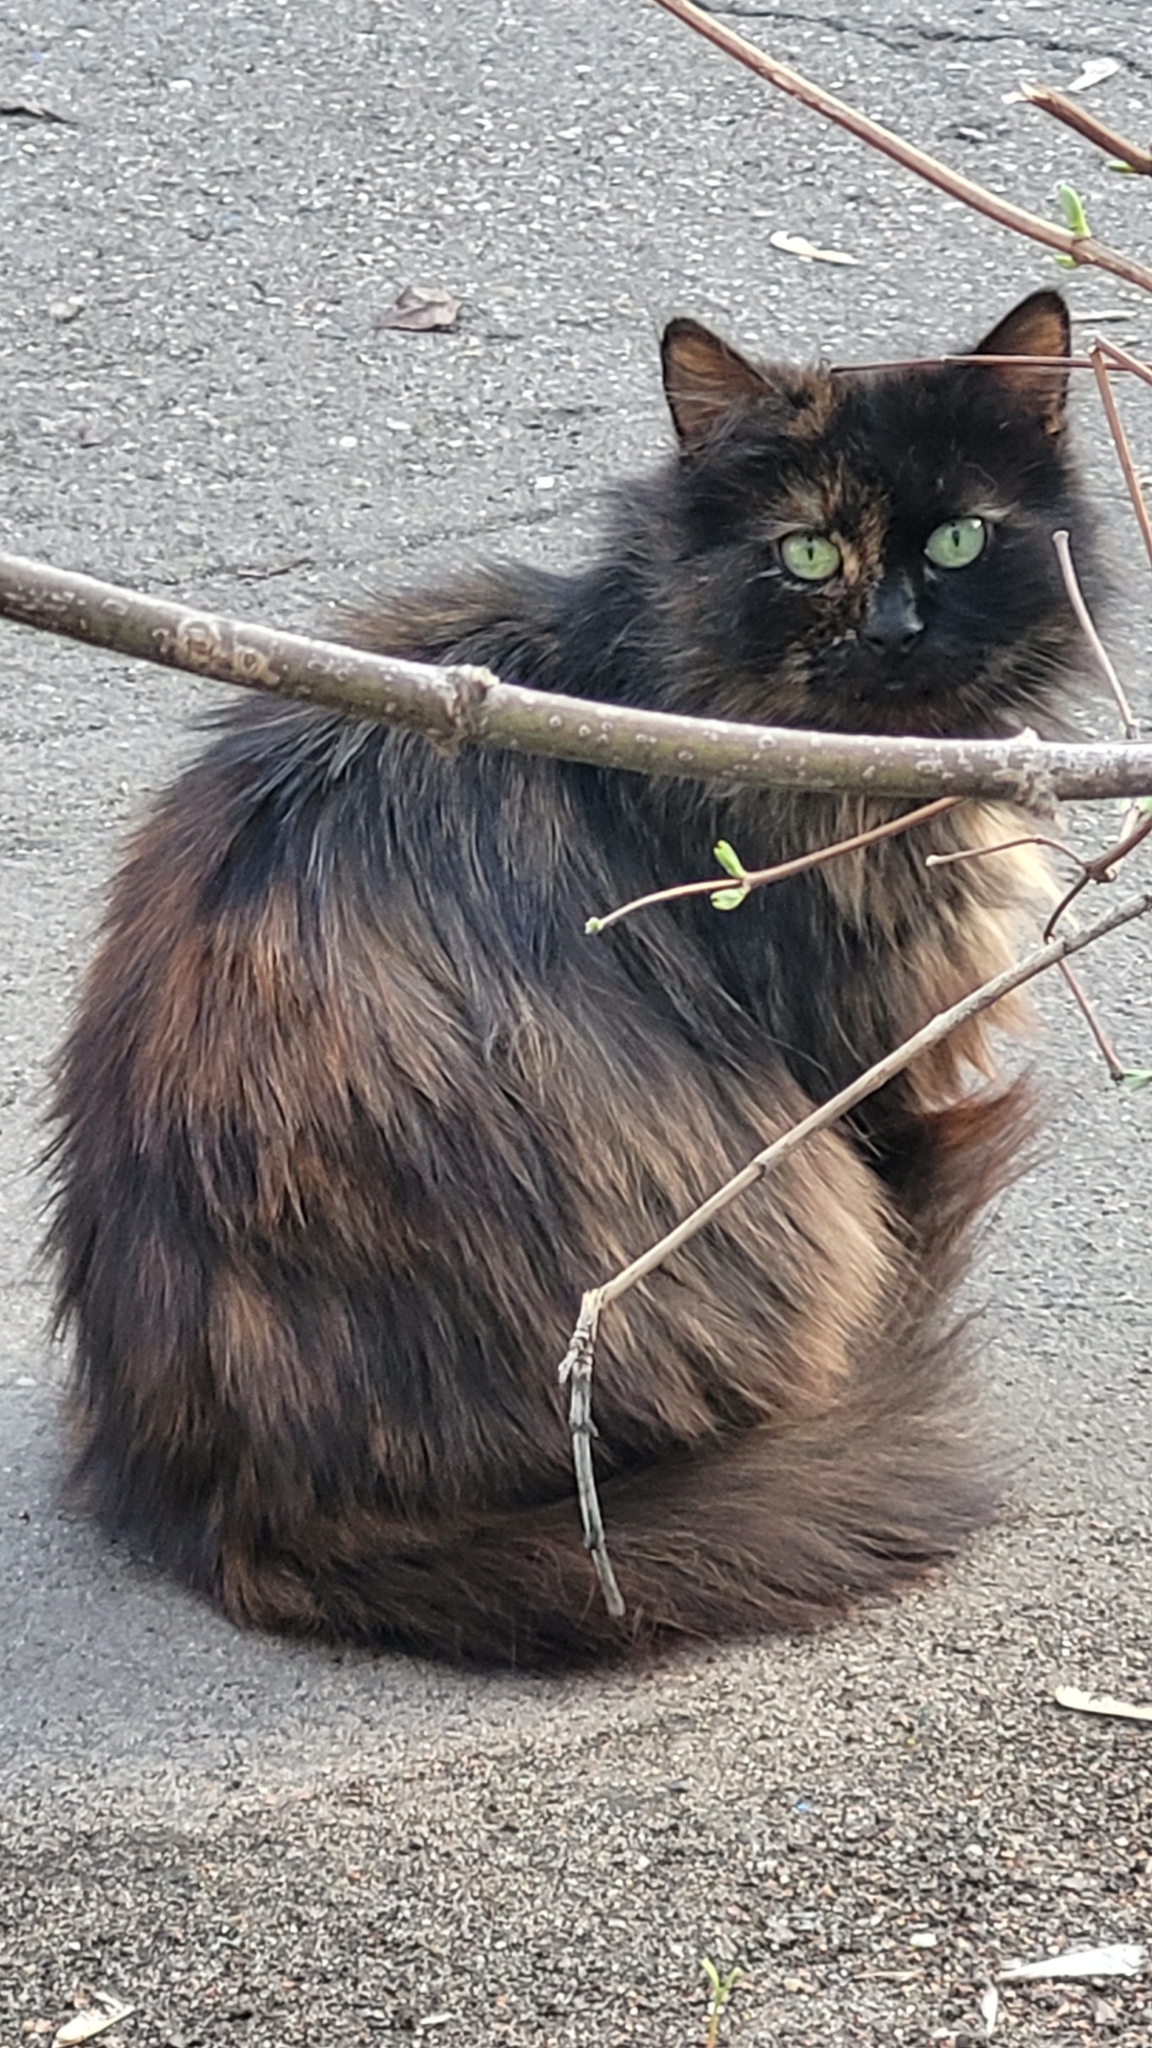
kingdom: Animalia
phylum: Chordata
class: Mammalia
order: Carnivora
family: Felidae
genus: Felis
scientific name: Felis catus
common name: Domestic cat
